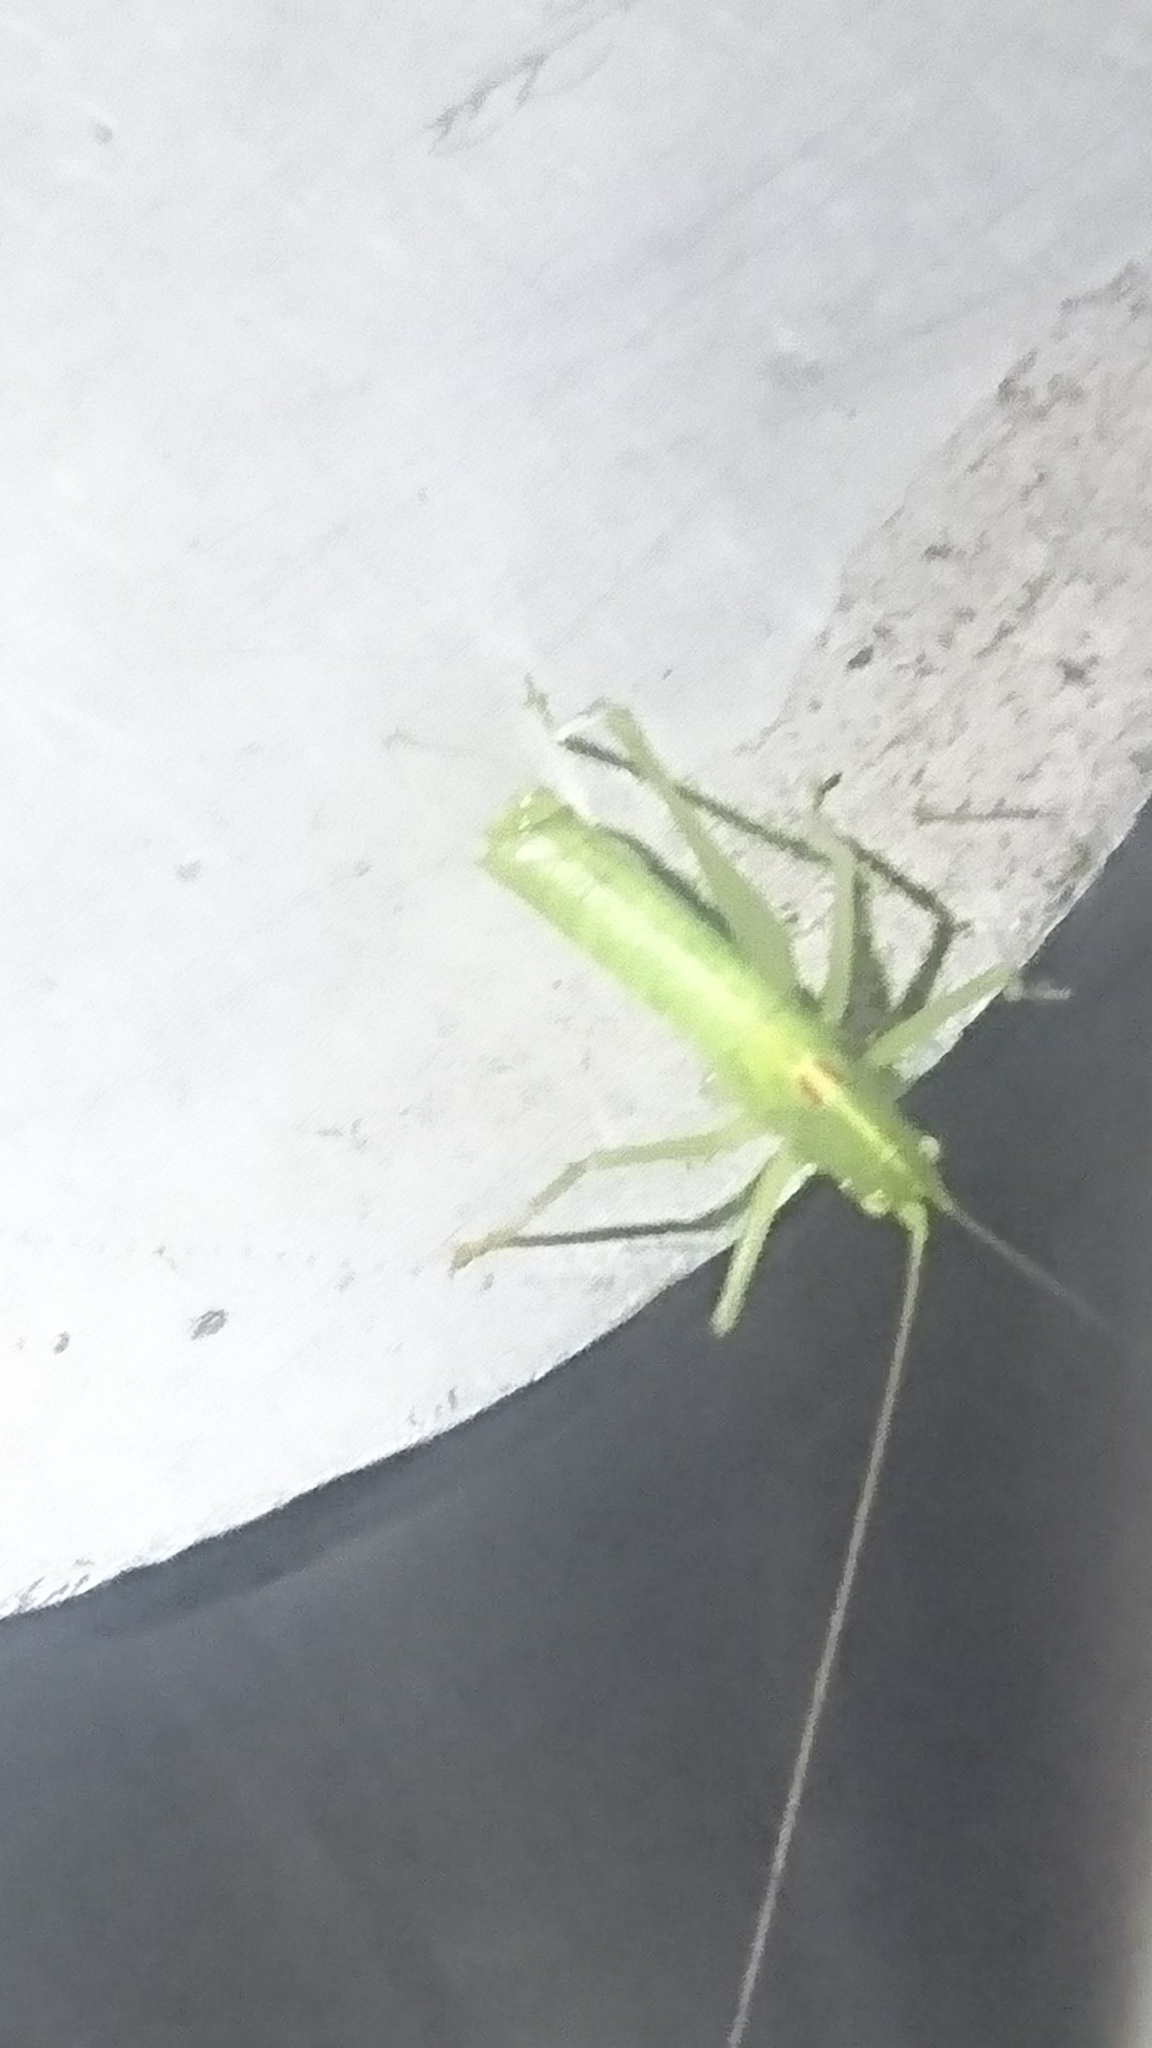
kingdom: Animalia
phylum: Arthropoda
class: Insecta
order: Orthoptera
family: Tettigoniidae
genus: Meconema
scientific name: Meconema meridionale
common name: Southern oak bush-cricket
